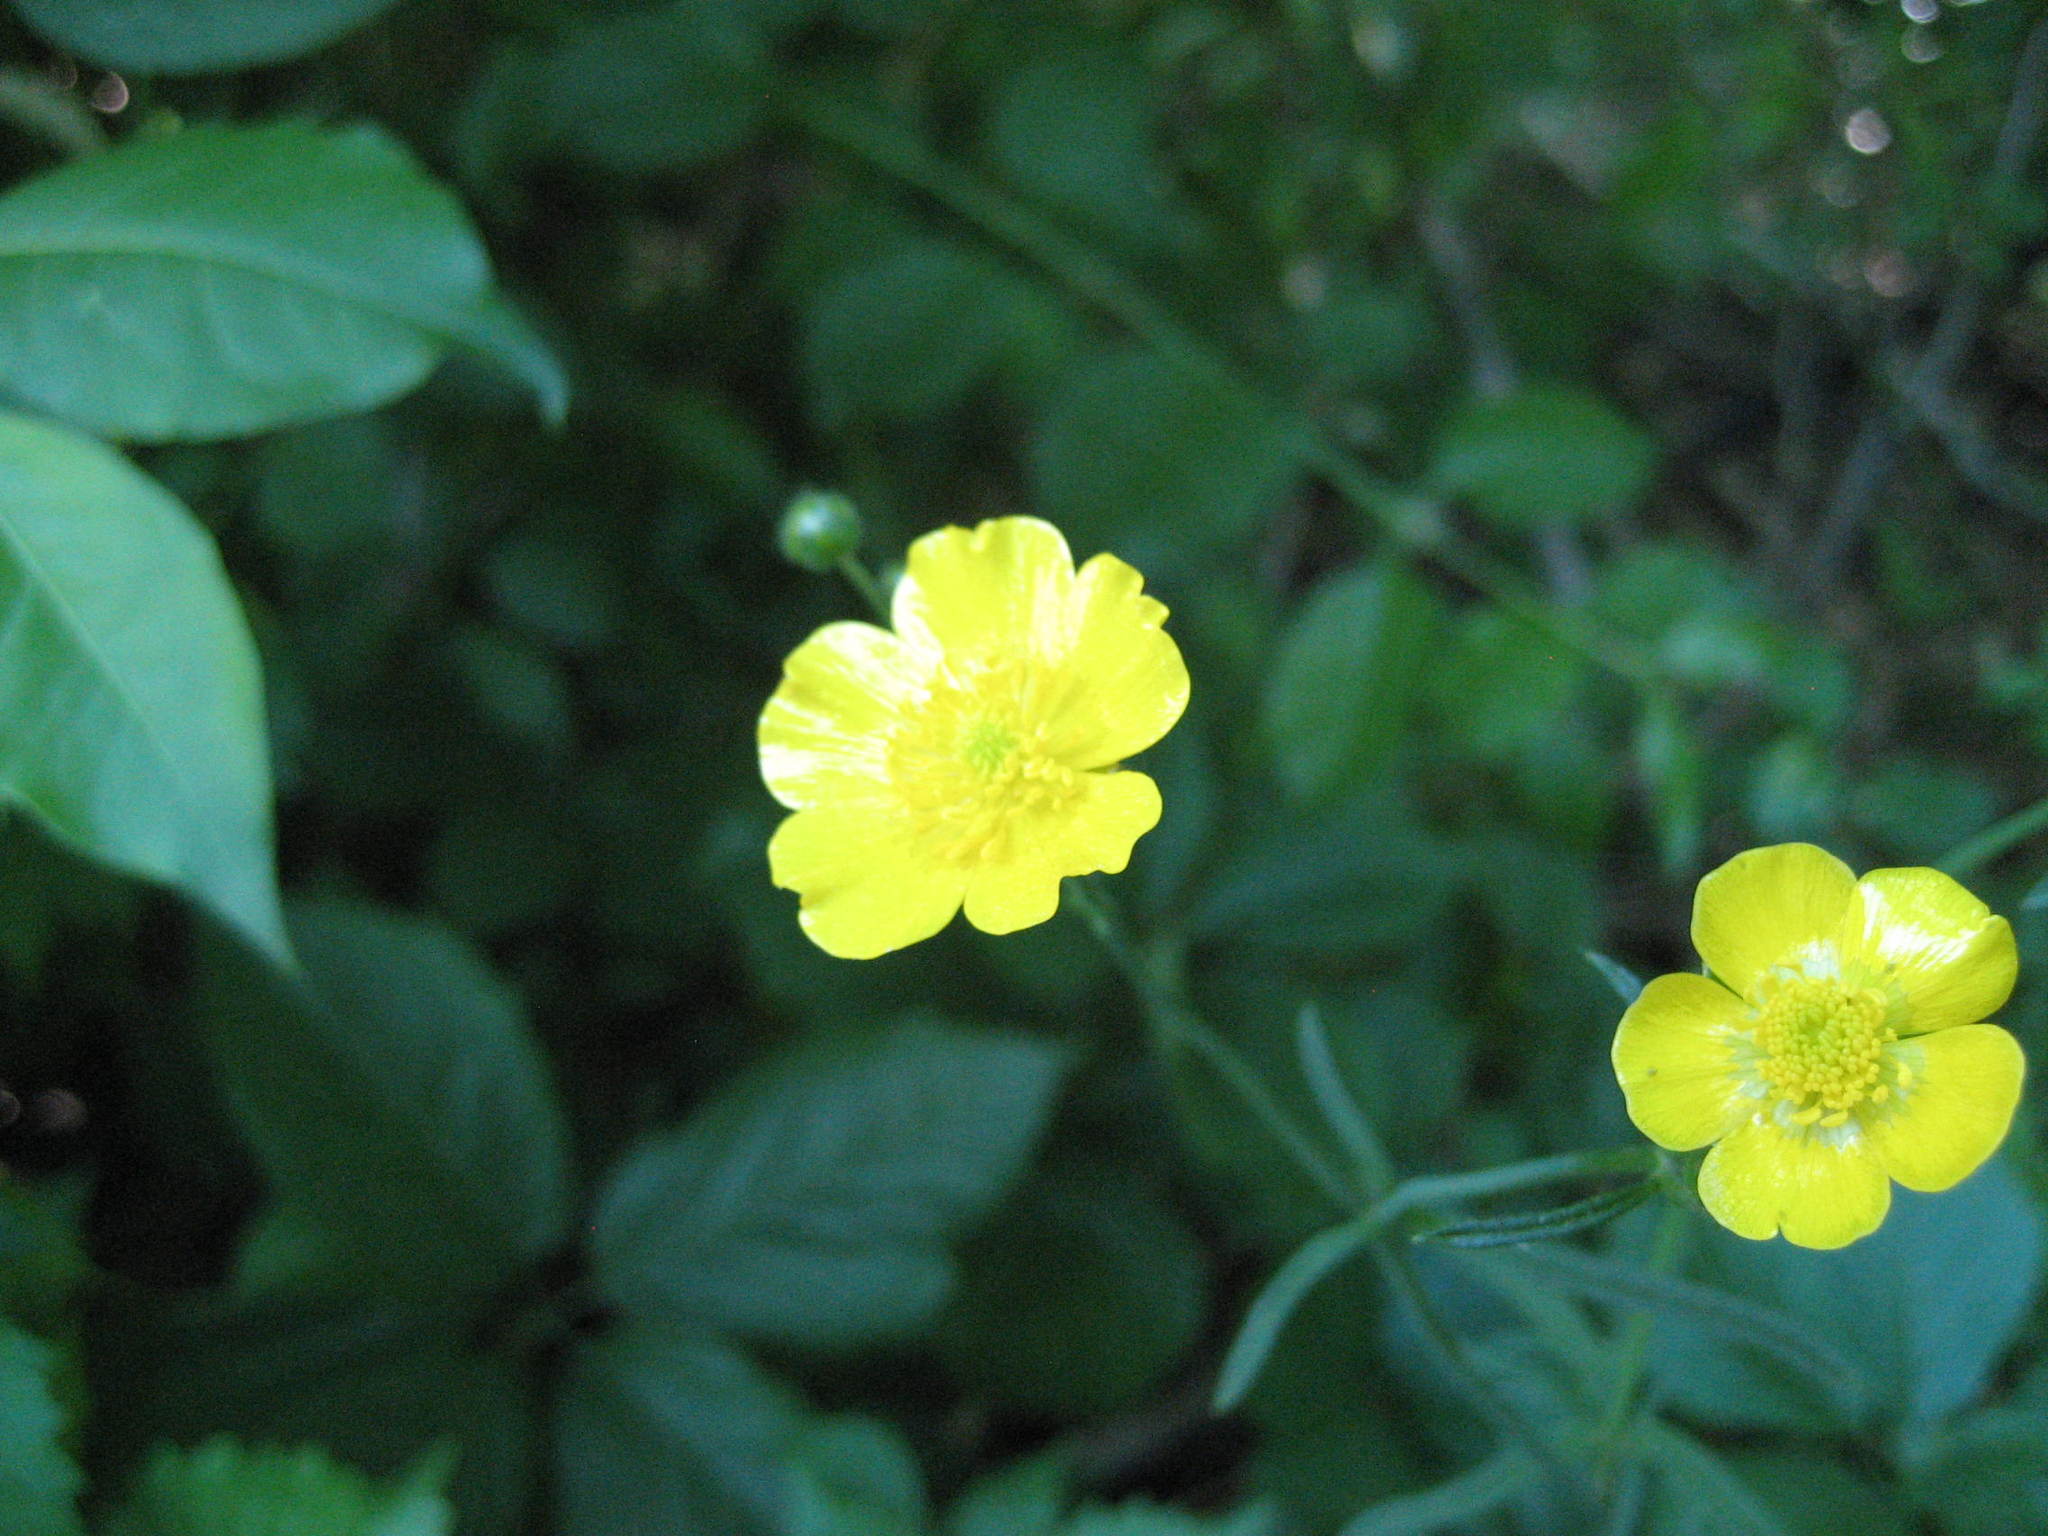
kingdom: Plantae
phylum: Tracheophyta
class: Magnoliopsida
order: Ranunculales
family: Ranunculaceae
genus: Ranunculus
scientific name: Ranunculus acris
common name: Meadow buttercup
